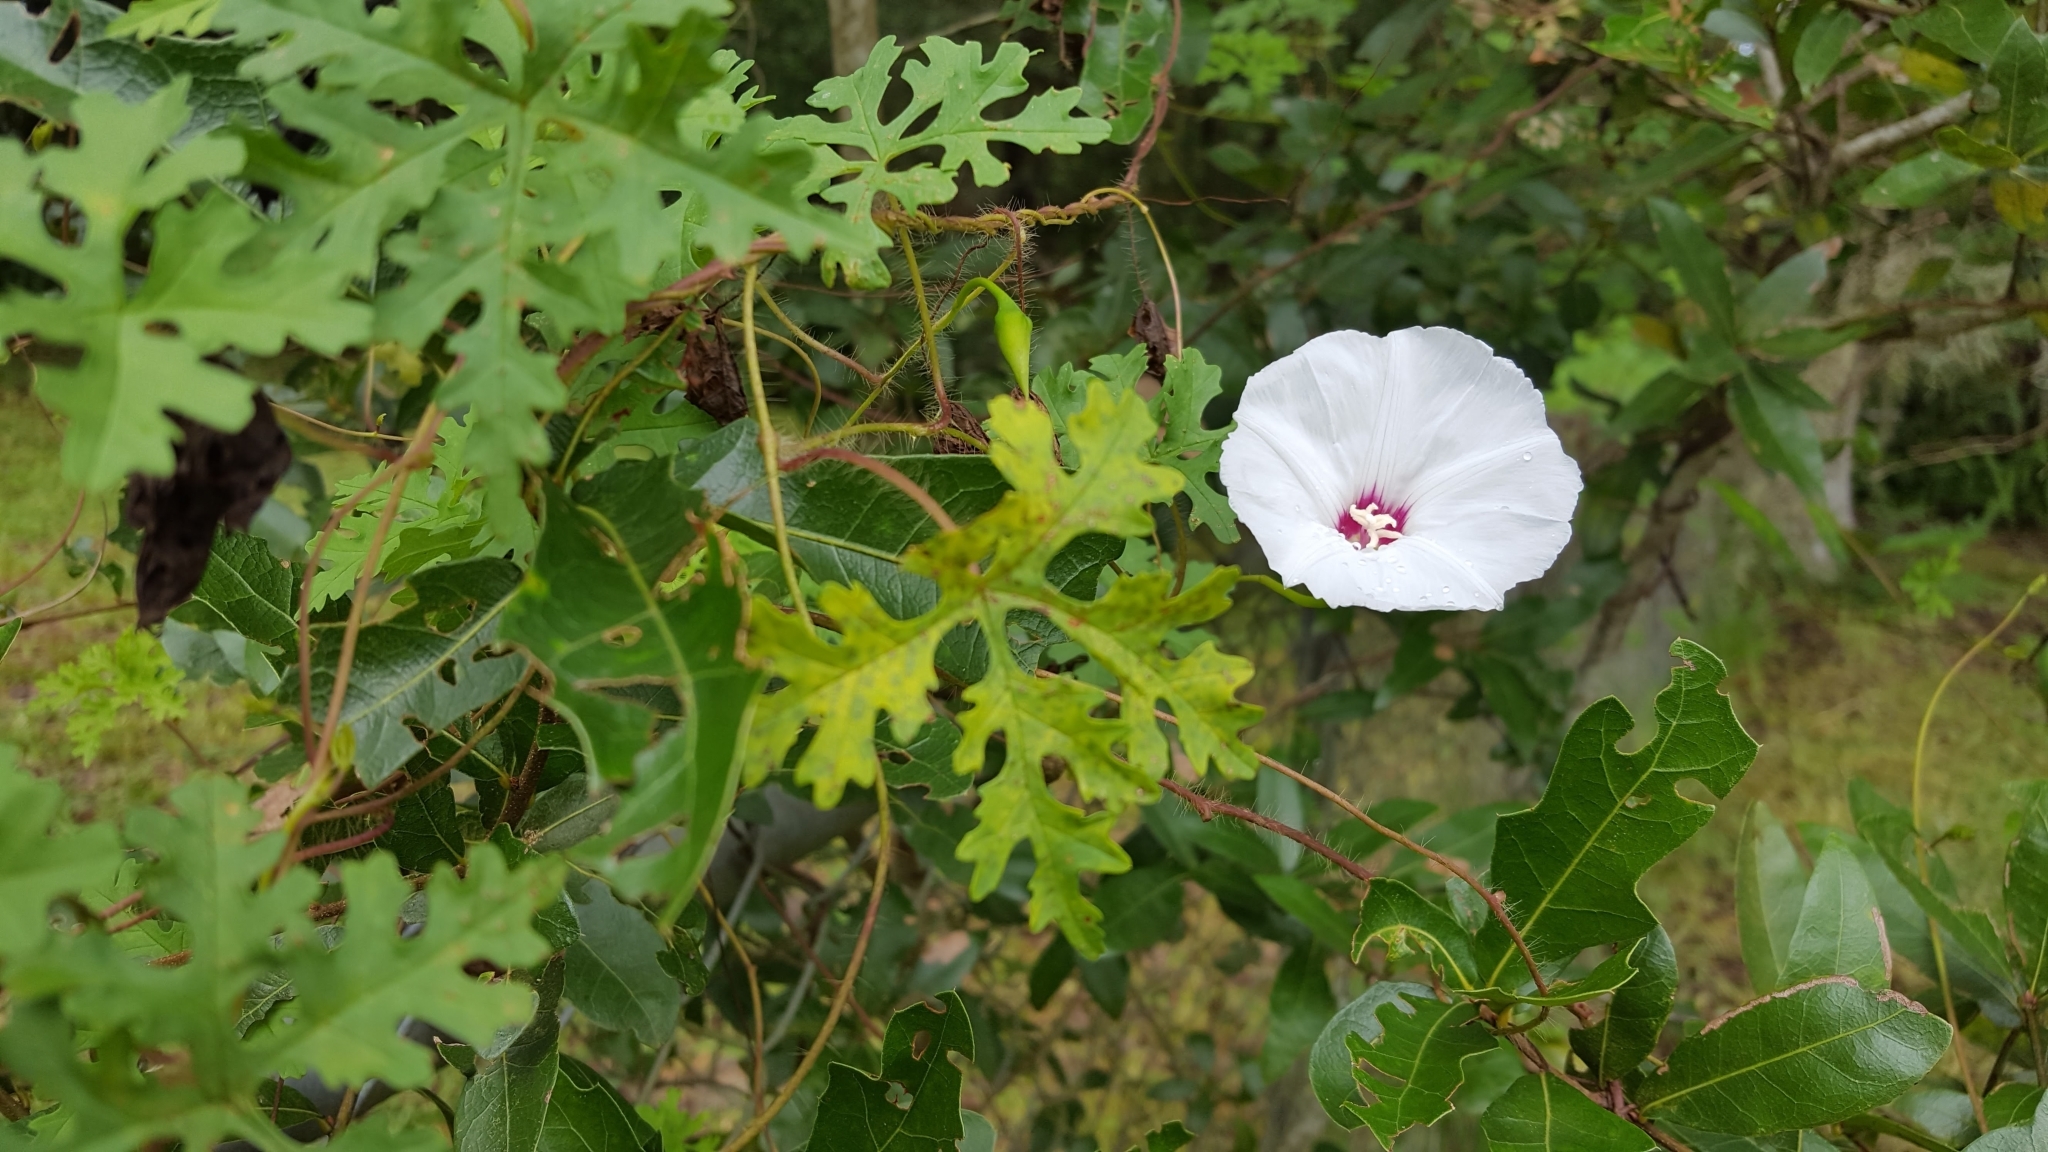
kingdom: Plantae
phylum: Tracheophyta
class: Magnoliopsida
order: Solanales
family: Convolvulaceae
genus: Distimake
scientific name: Distimake dissectus
